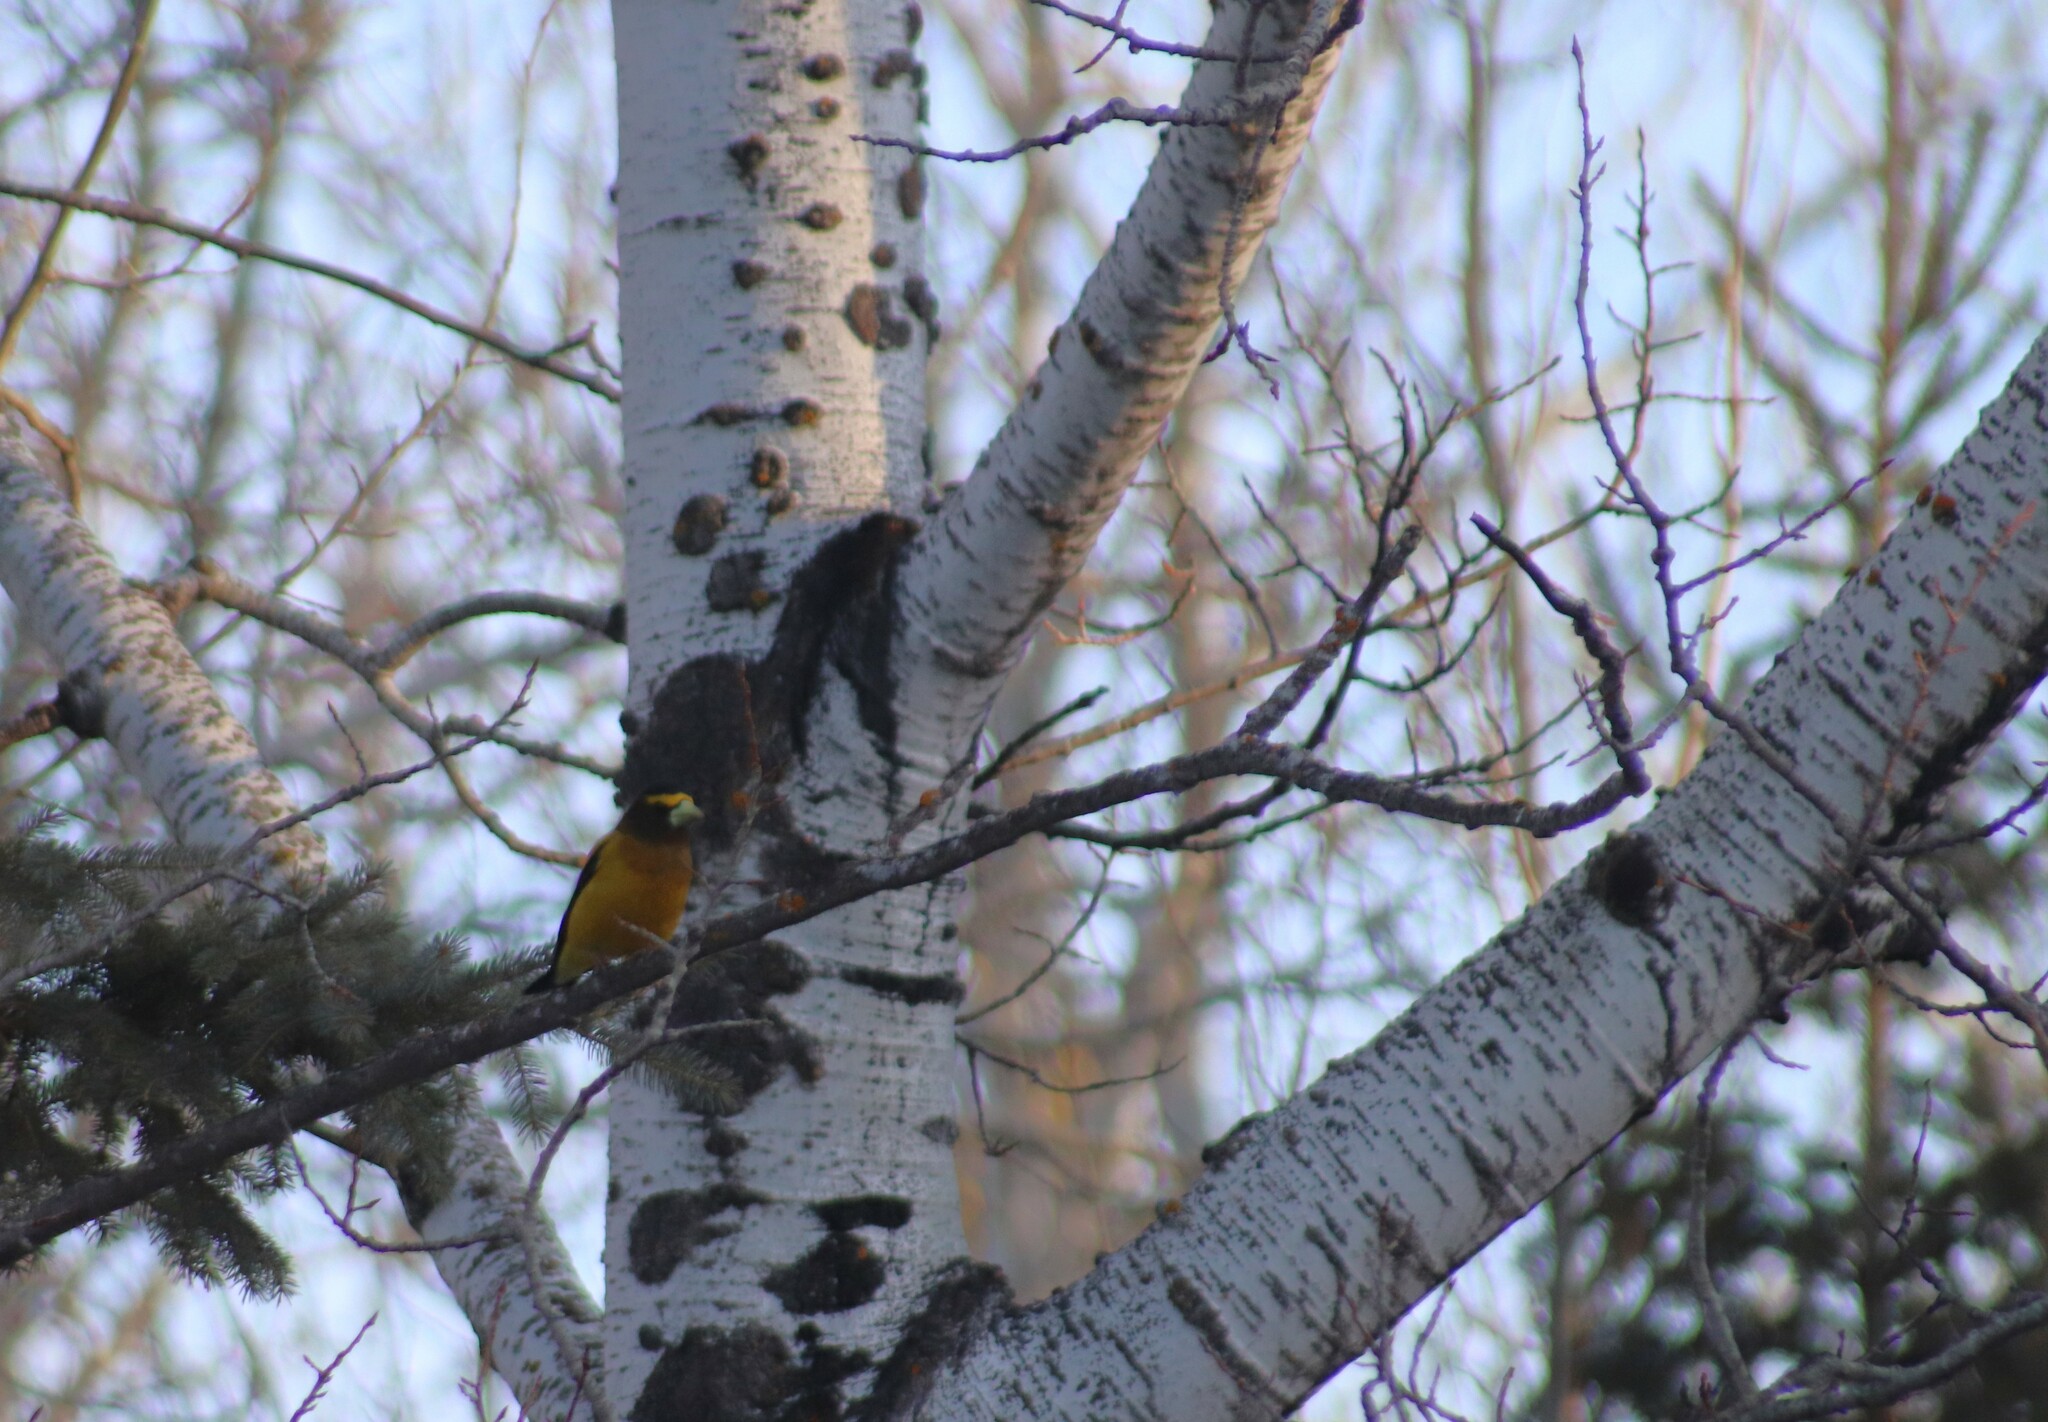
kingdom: Animalia
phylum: Chordata
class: Aves
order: Passeriformes
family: Fringillidae
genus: Hesperiphona
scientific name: Hesperiphona vespertina
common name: Evening grosbeak
